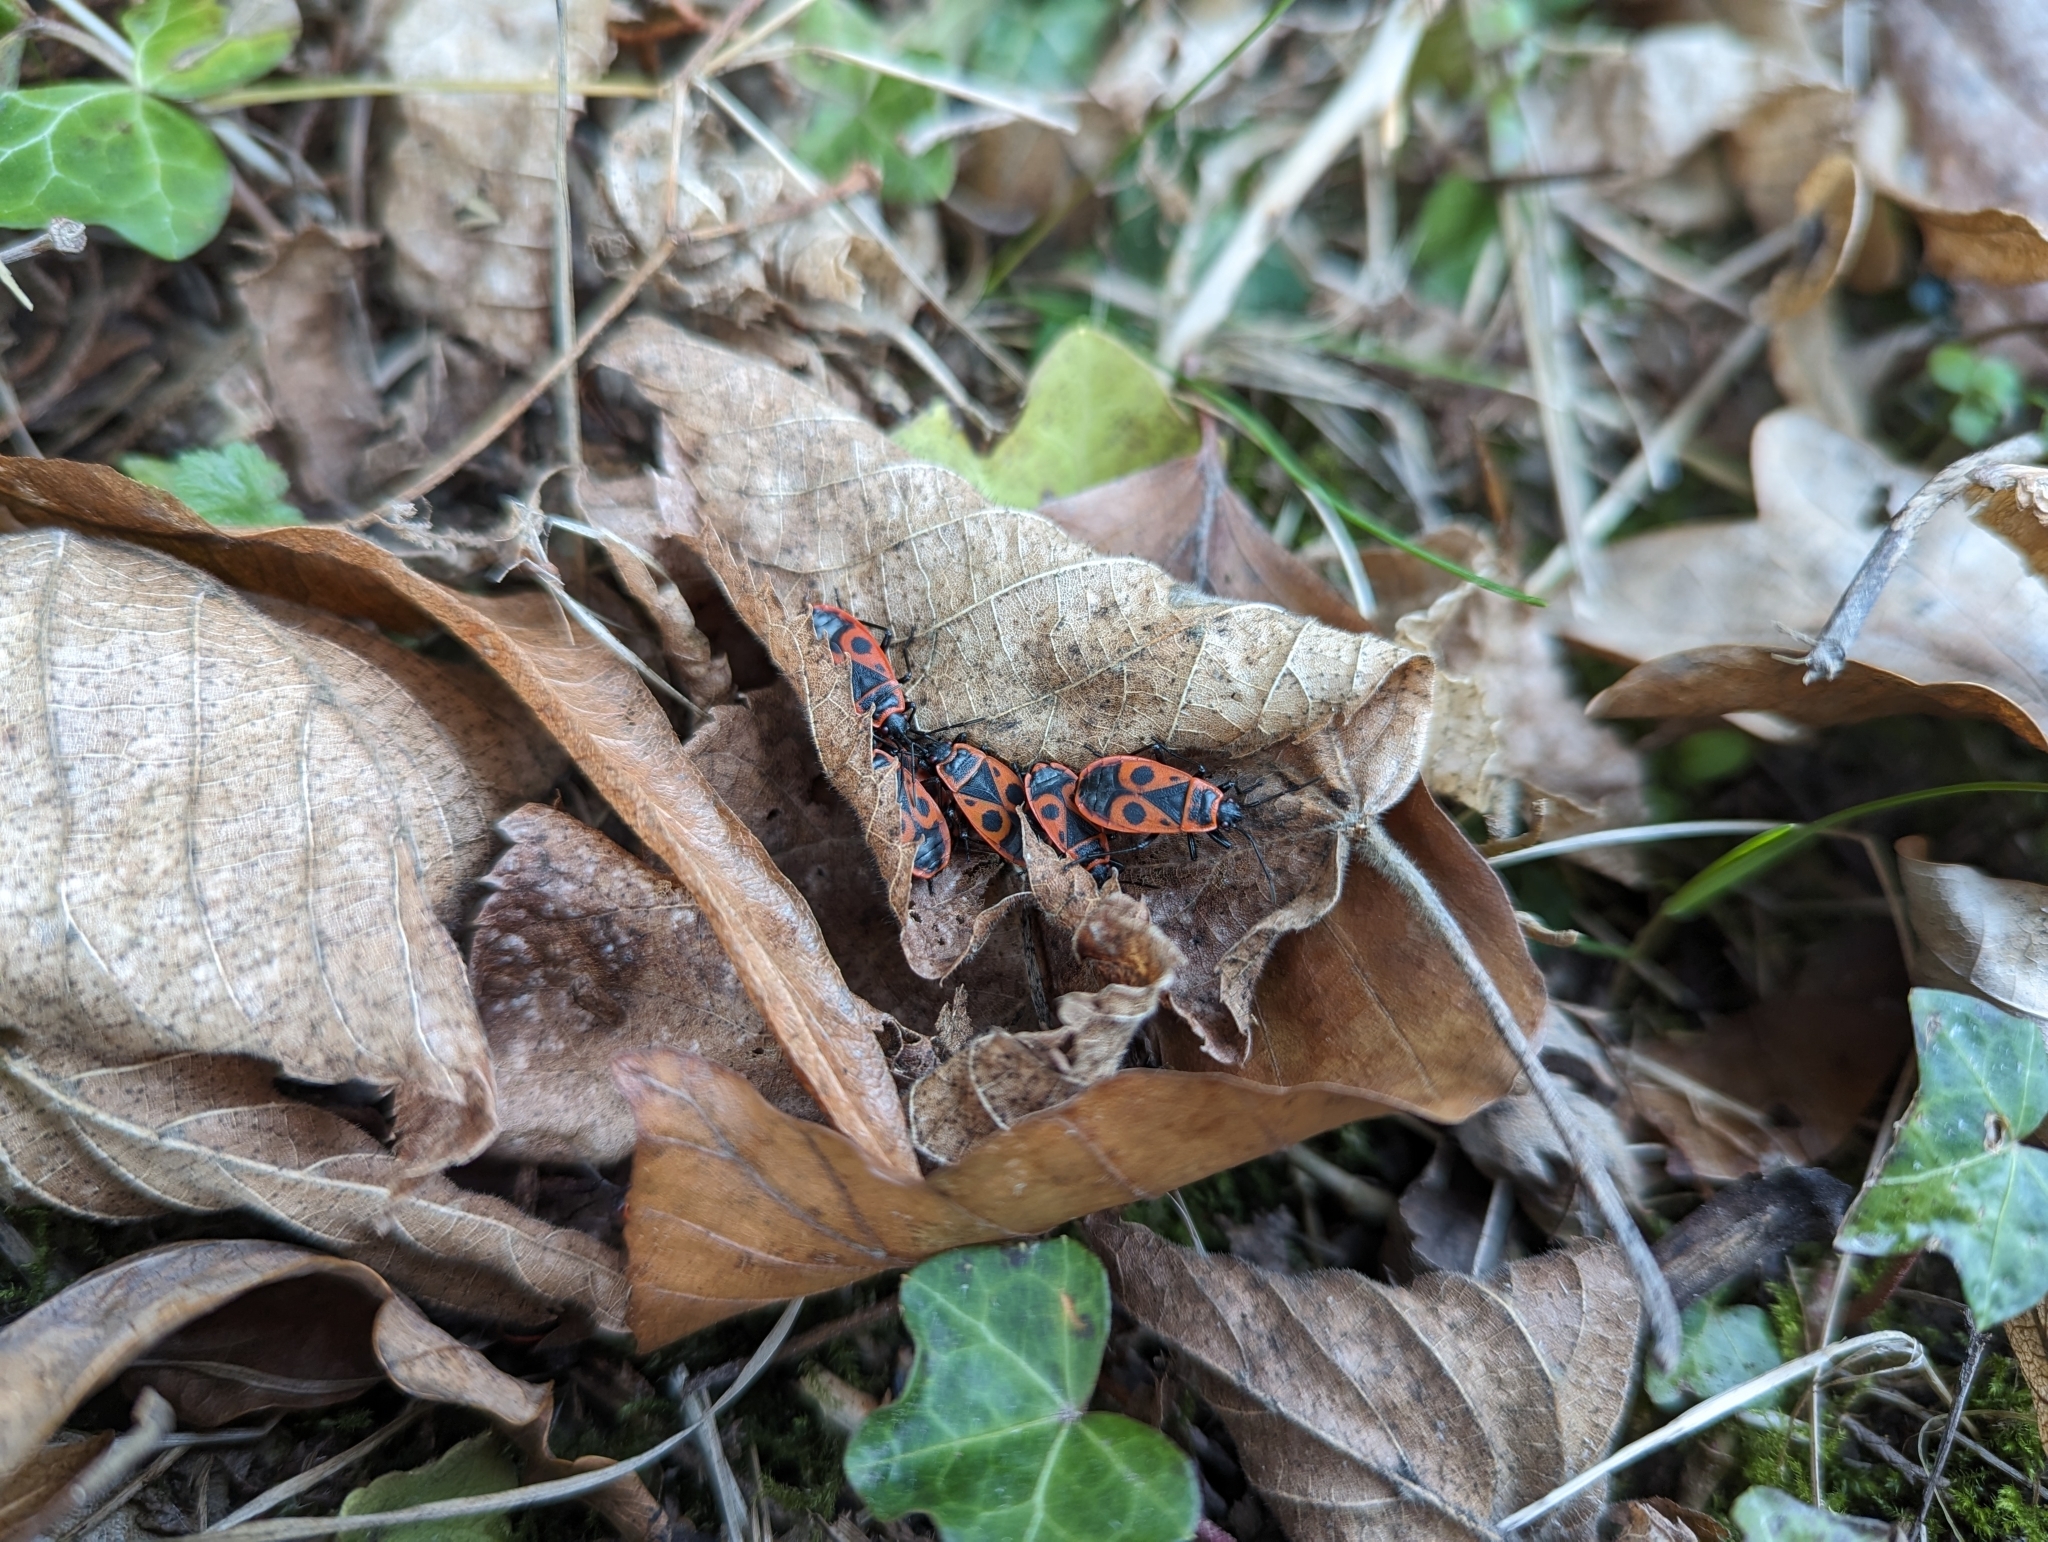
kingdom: Animalia
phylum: Arthropoda
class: Insecta
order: Hemiptera
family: Pyrrhocoridae
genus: Pyrrhocoris
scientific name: Pyrrhocoris apterus
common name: Firebug
